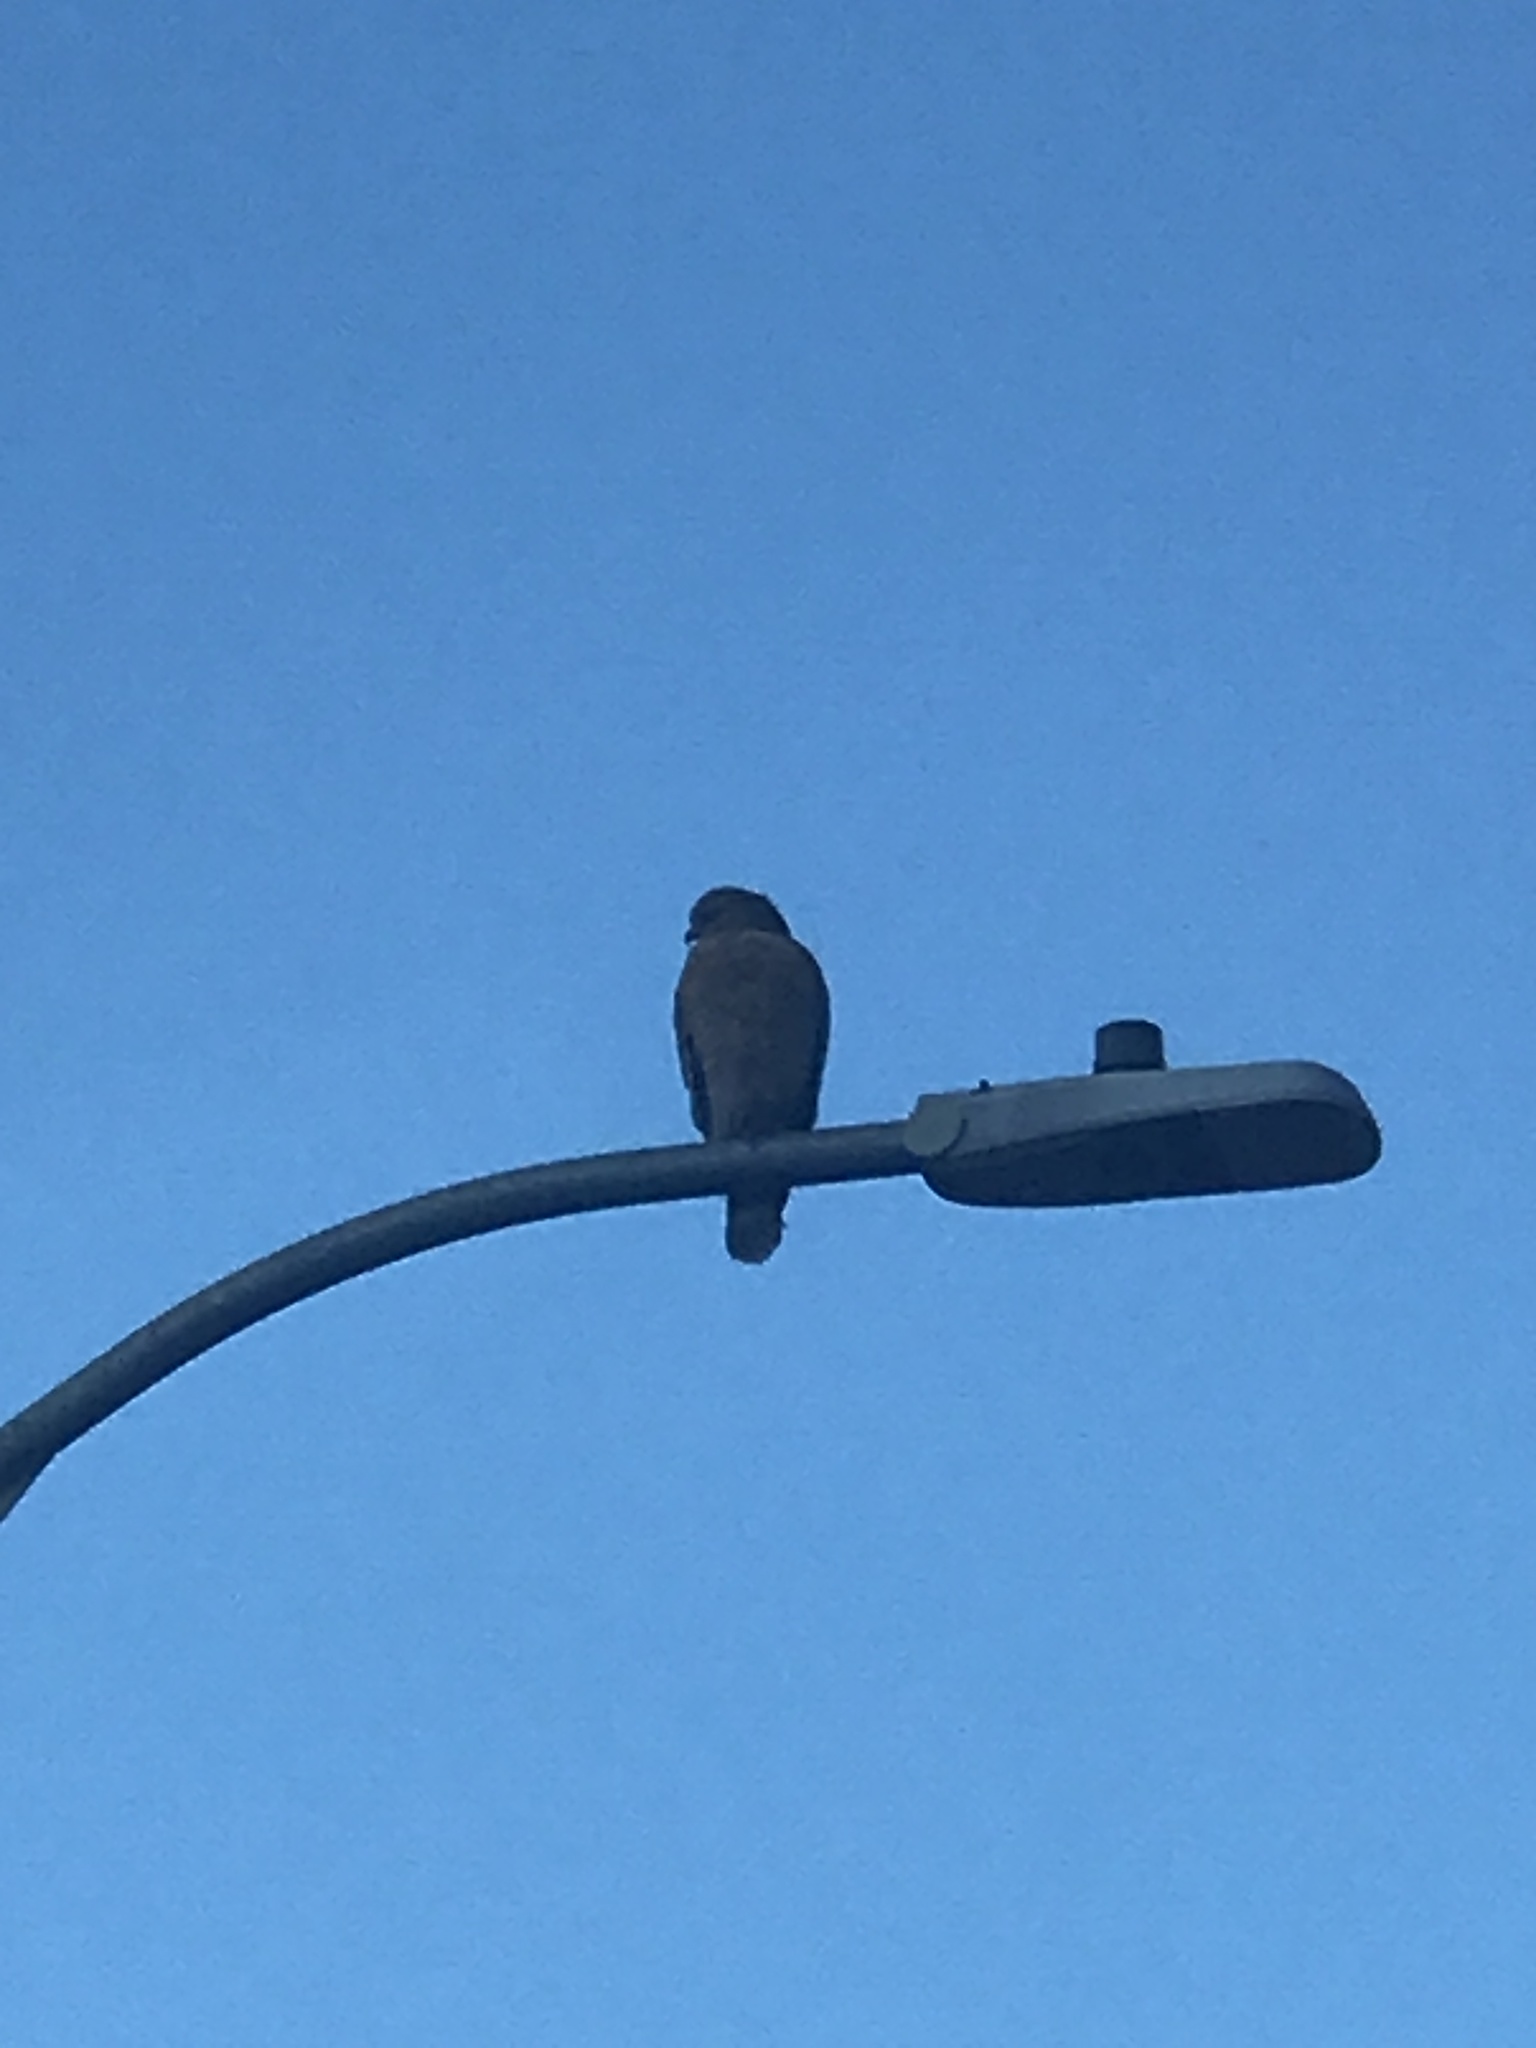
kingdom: Animalia
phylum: Chordata
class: Aves
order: Accipitriformes
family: Accipitridae
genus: Buteo
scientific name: Buteo lineatus
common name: Red-shouldered hawk
